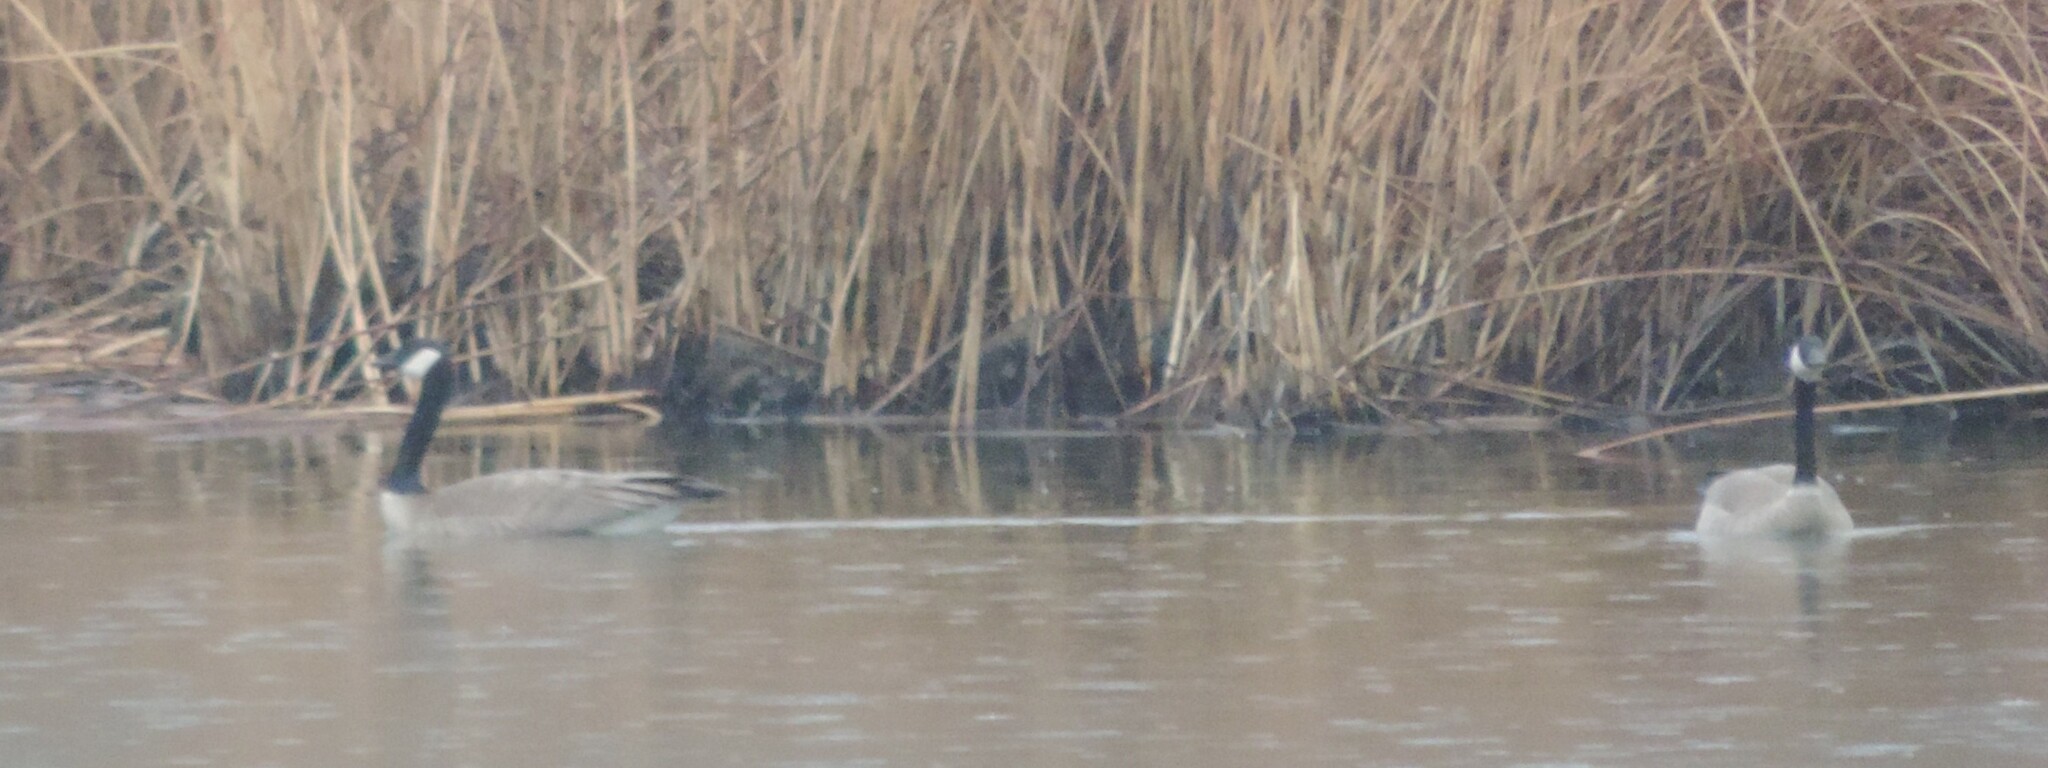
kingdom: Animalia
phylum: Chordata
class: Aves
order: Anseriformes
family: Anatidae
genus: Branta
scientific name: Branta canadensis
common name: Canada goose
